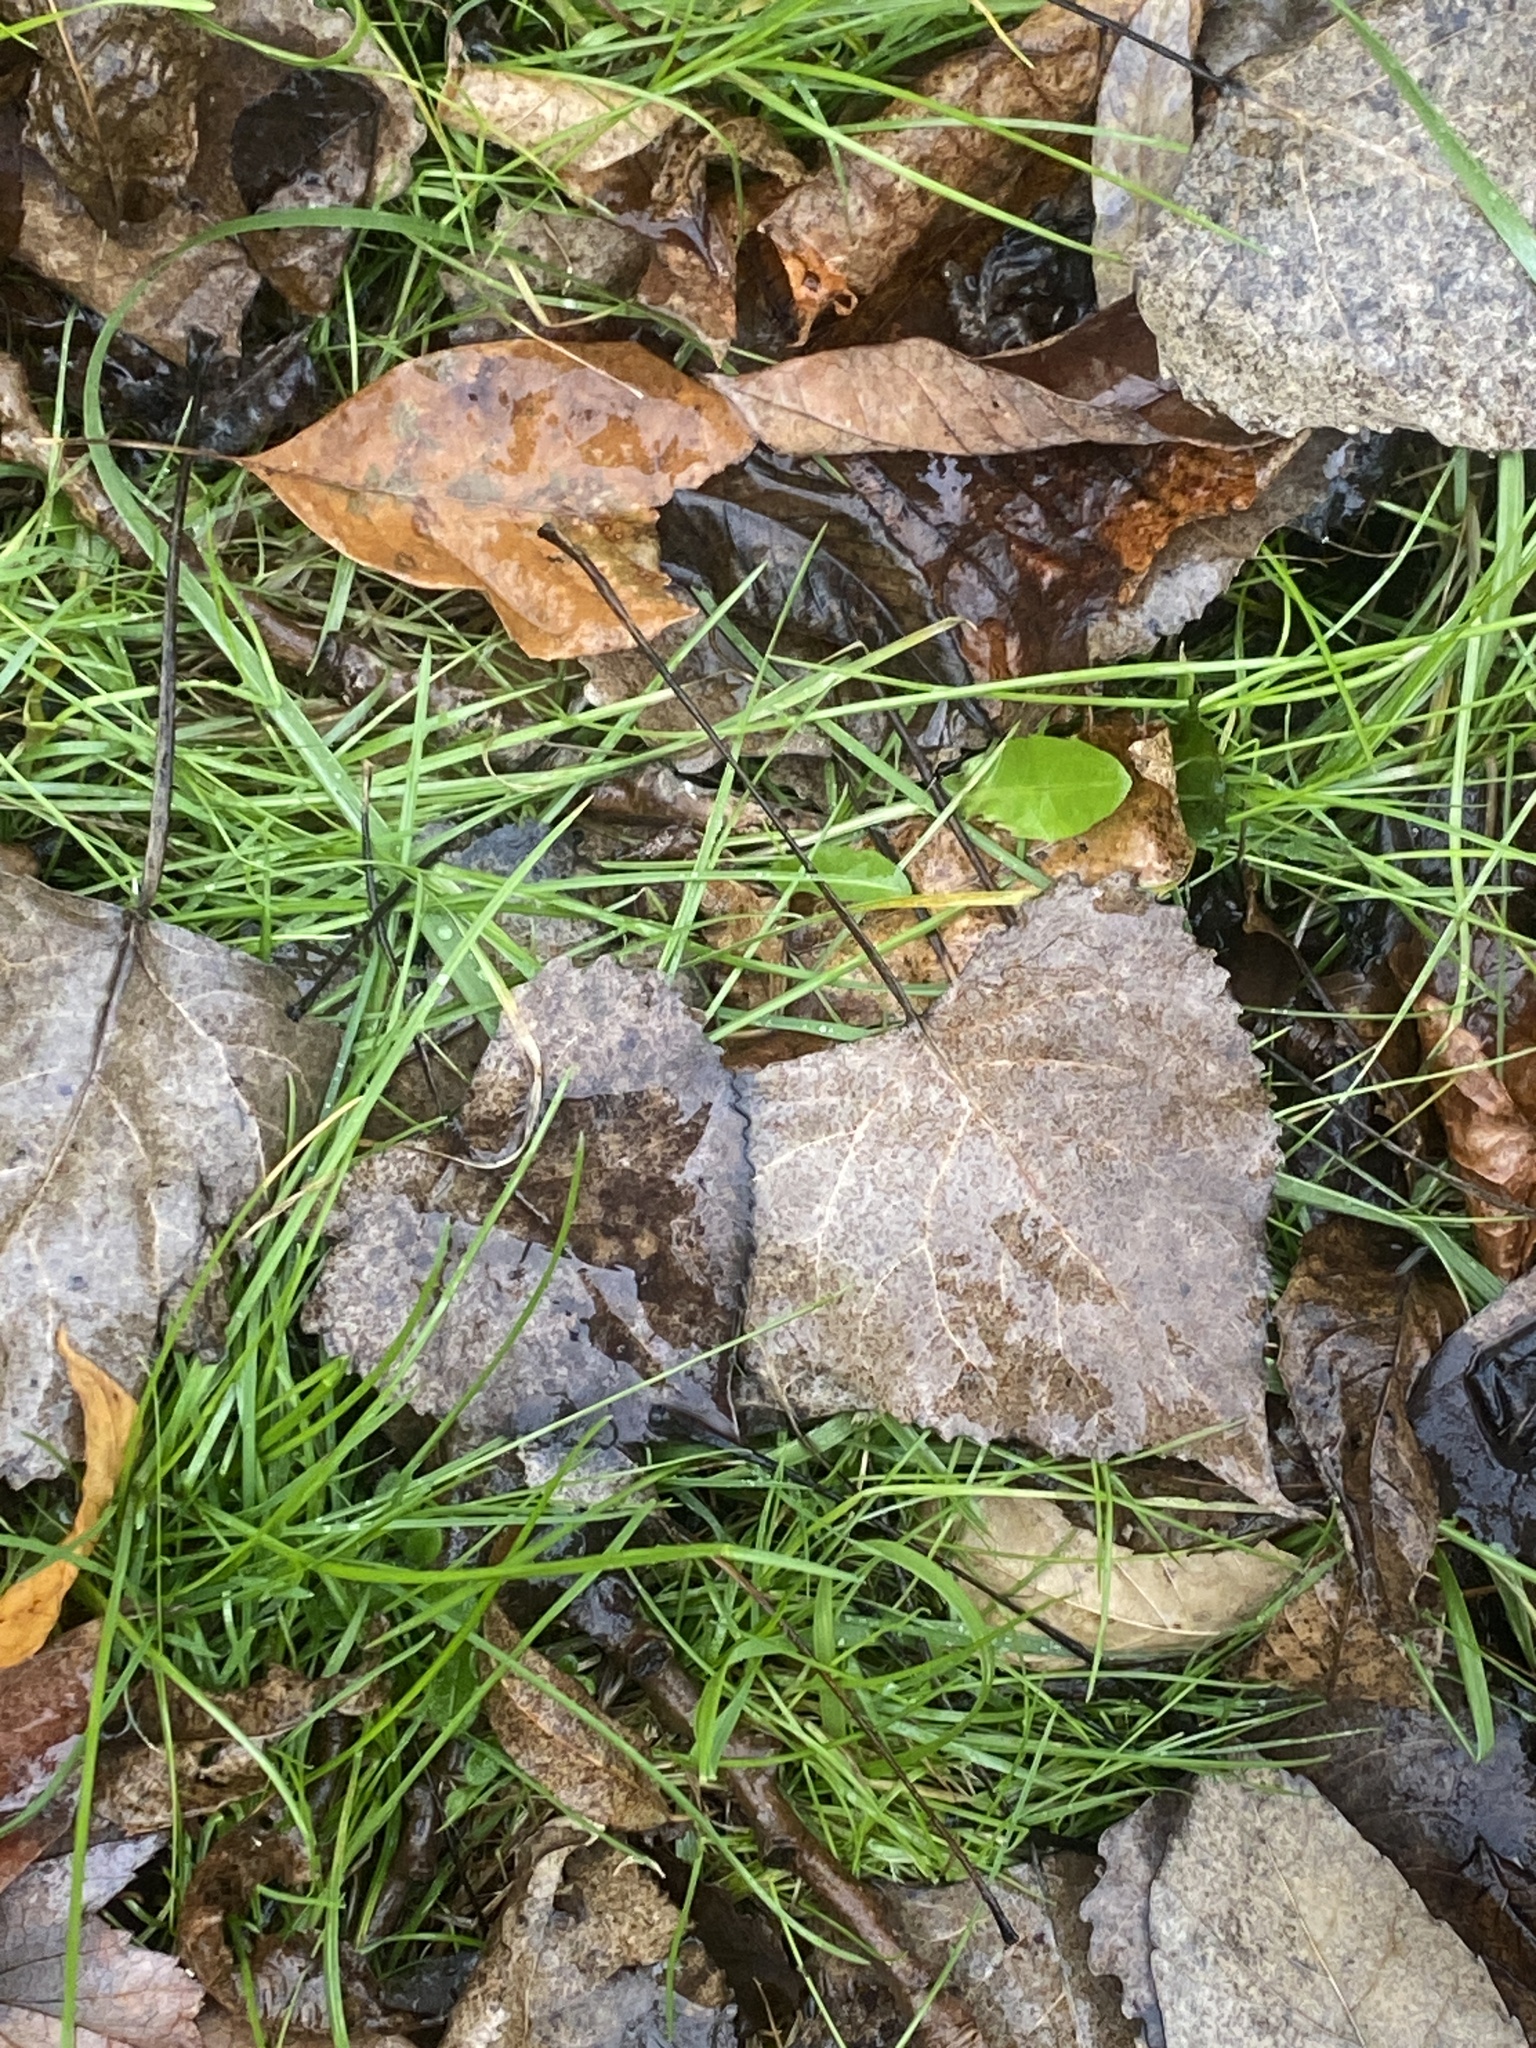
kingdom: Plantae
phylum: Tracheophyta
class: Magnoliopsida
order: Malpighiales
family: Salicaceae
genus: Populus
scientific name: Populus deltoides
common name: Eastern cottonwood
